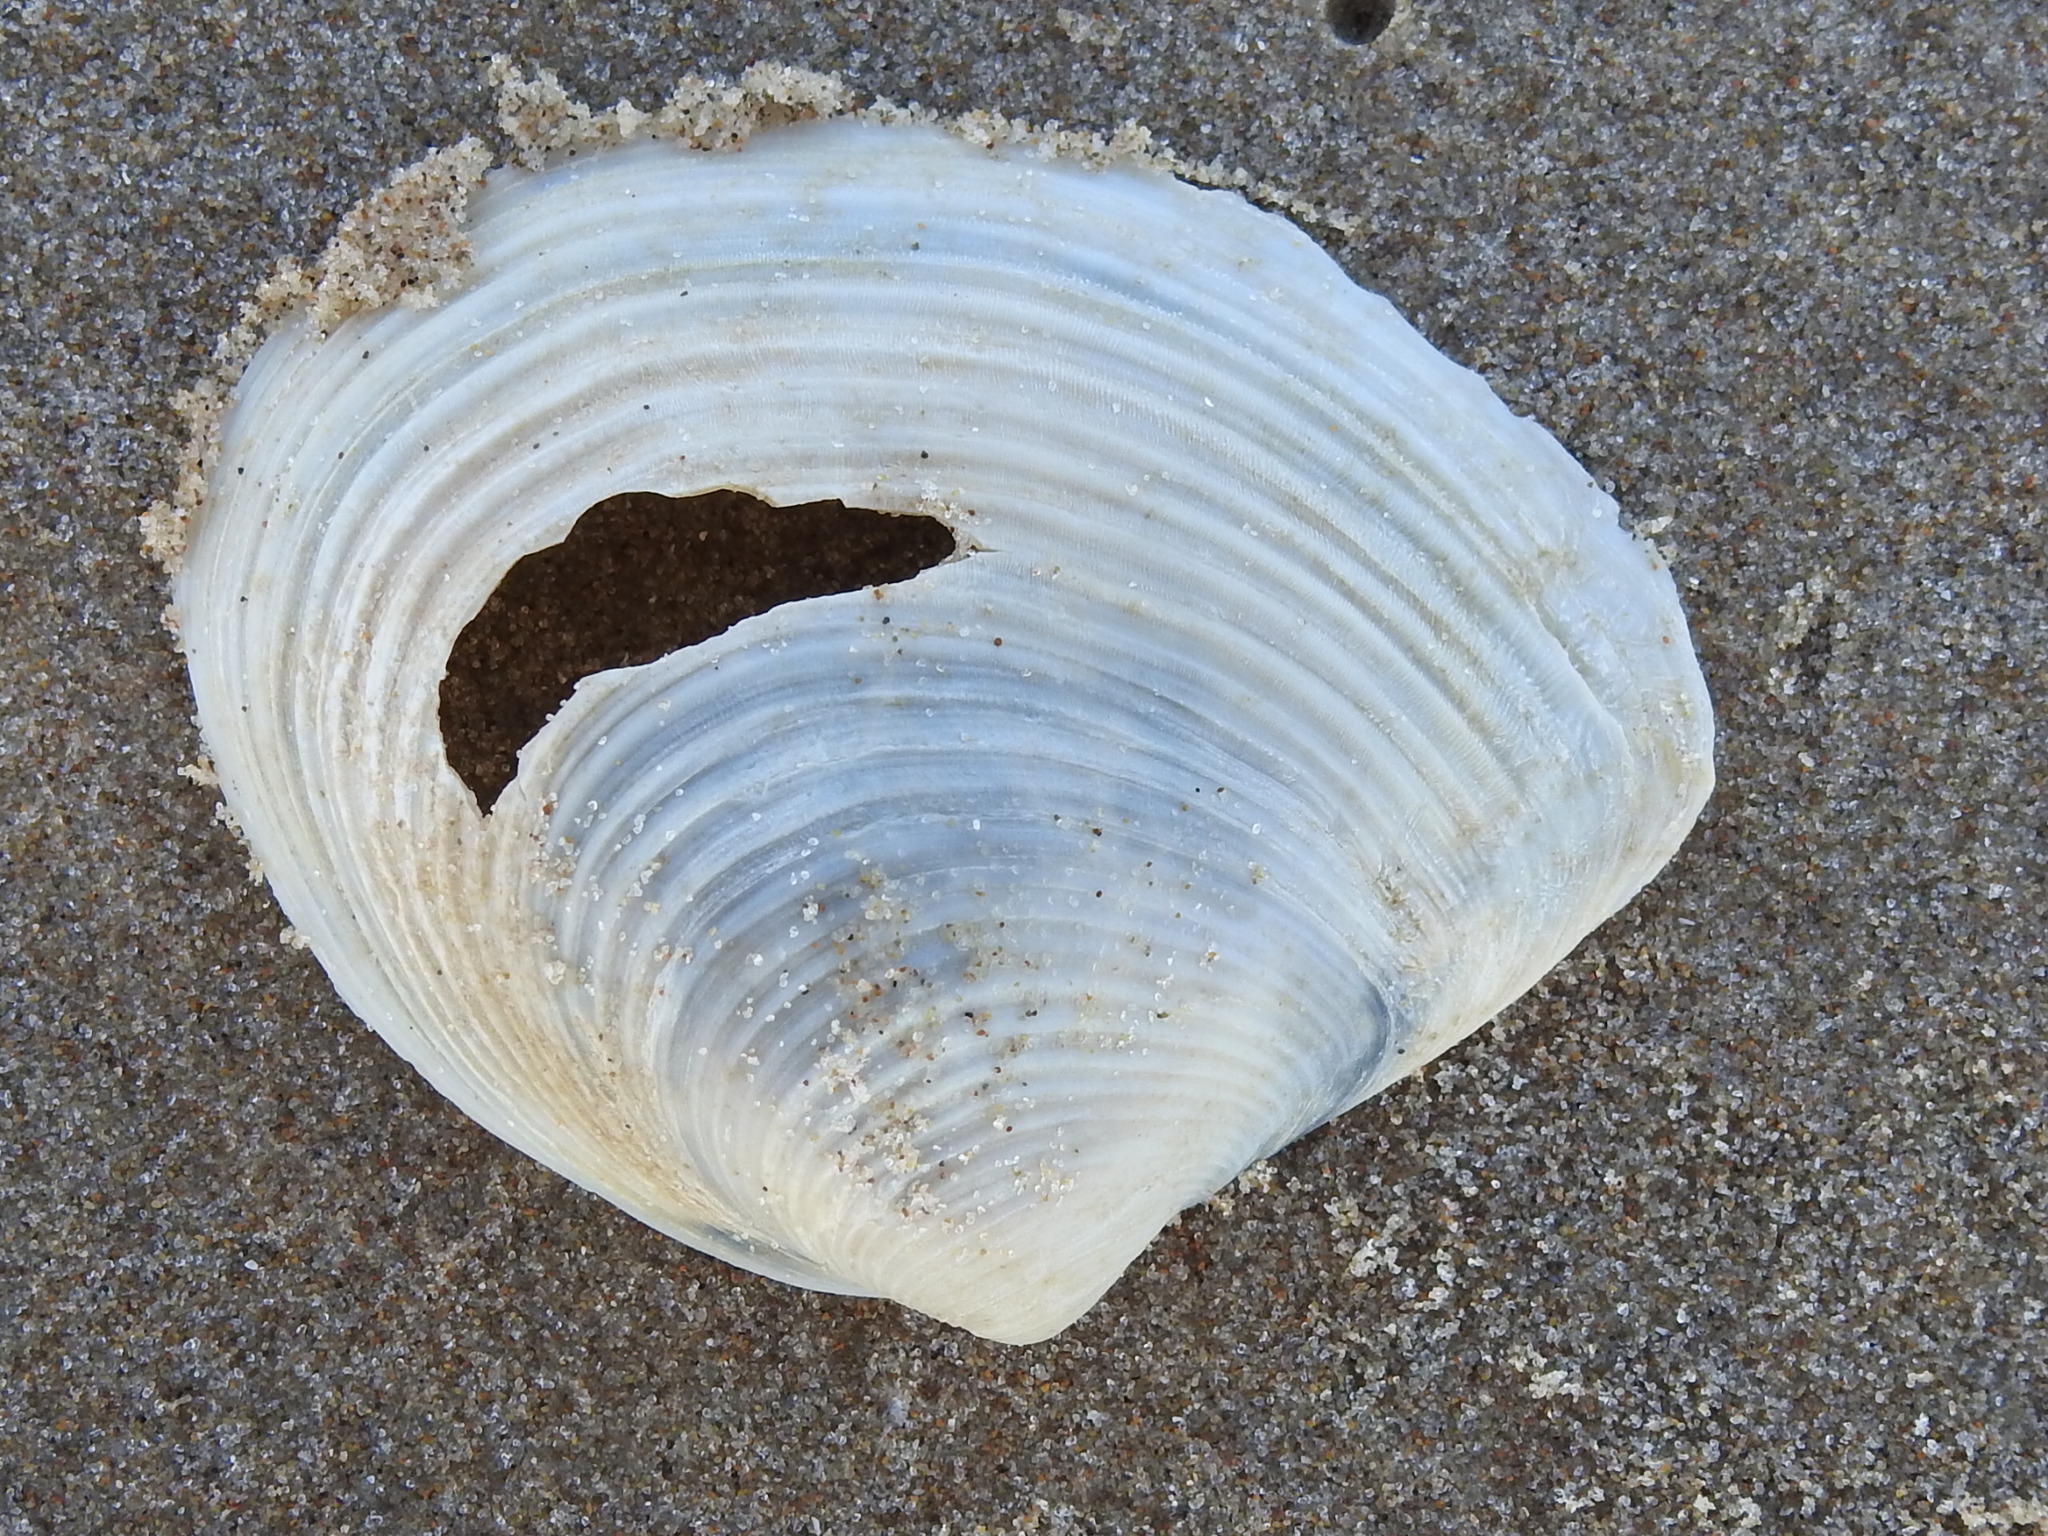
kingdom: Animalia
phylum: Mollusca
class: Bivalvia
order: Venerida
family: Anatinellidae
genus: Raeta
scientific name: Raeta plicatella
